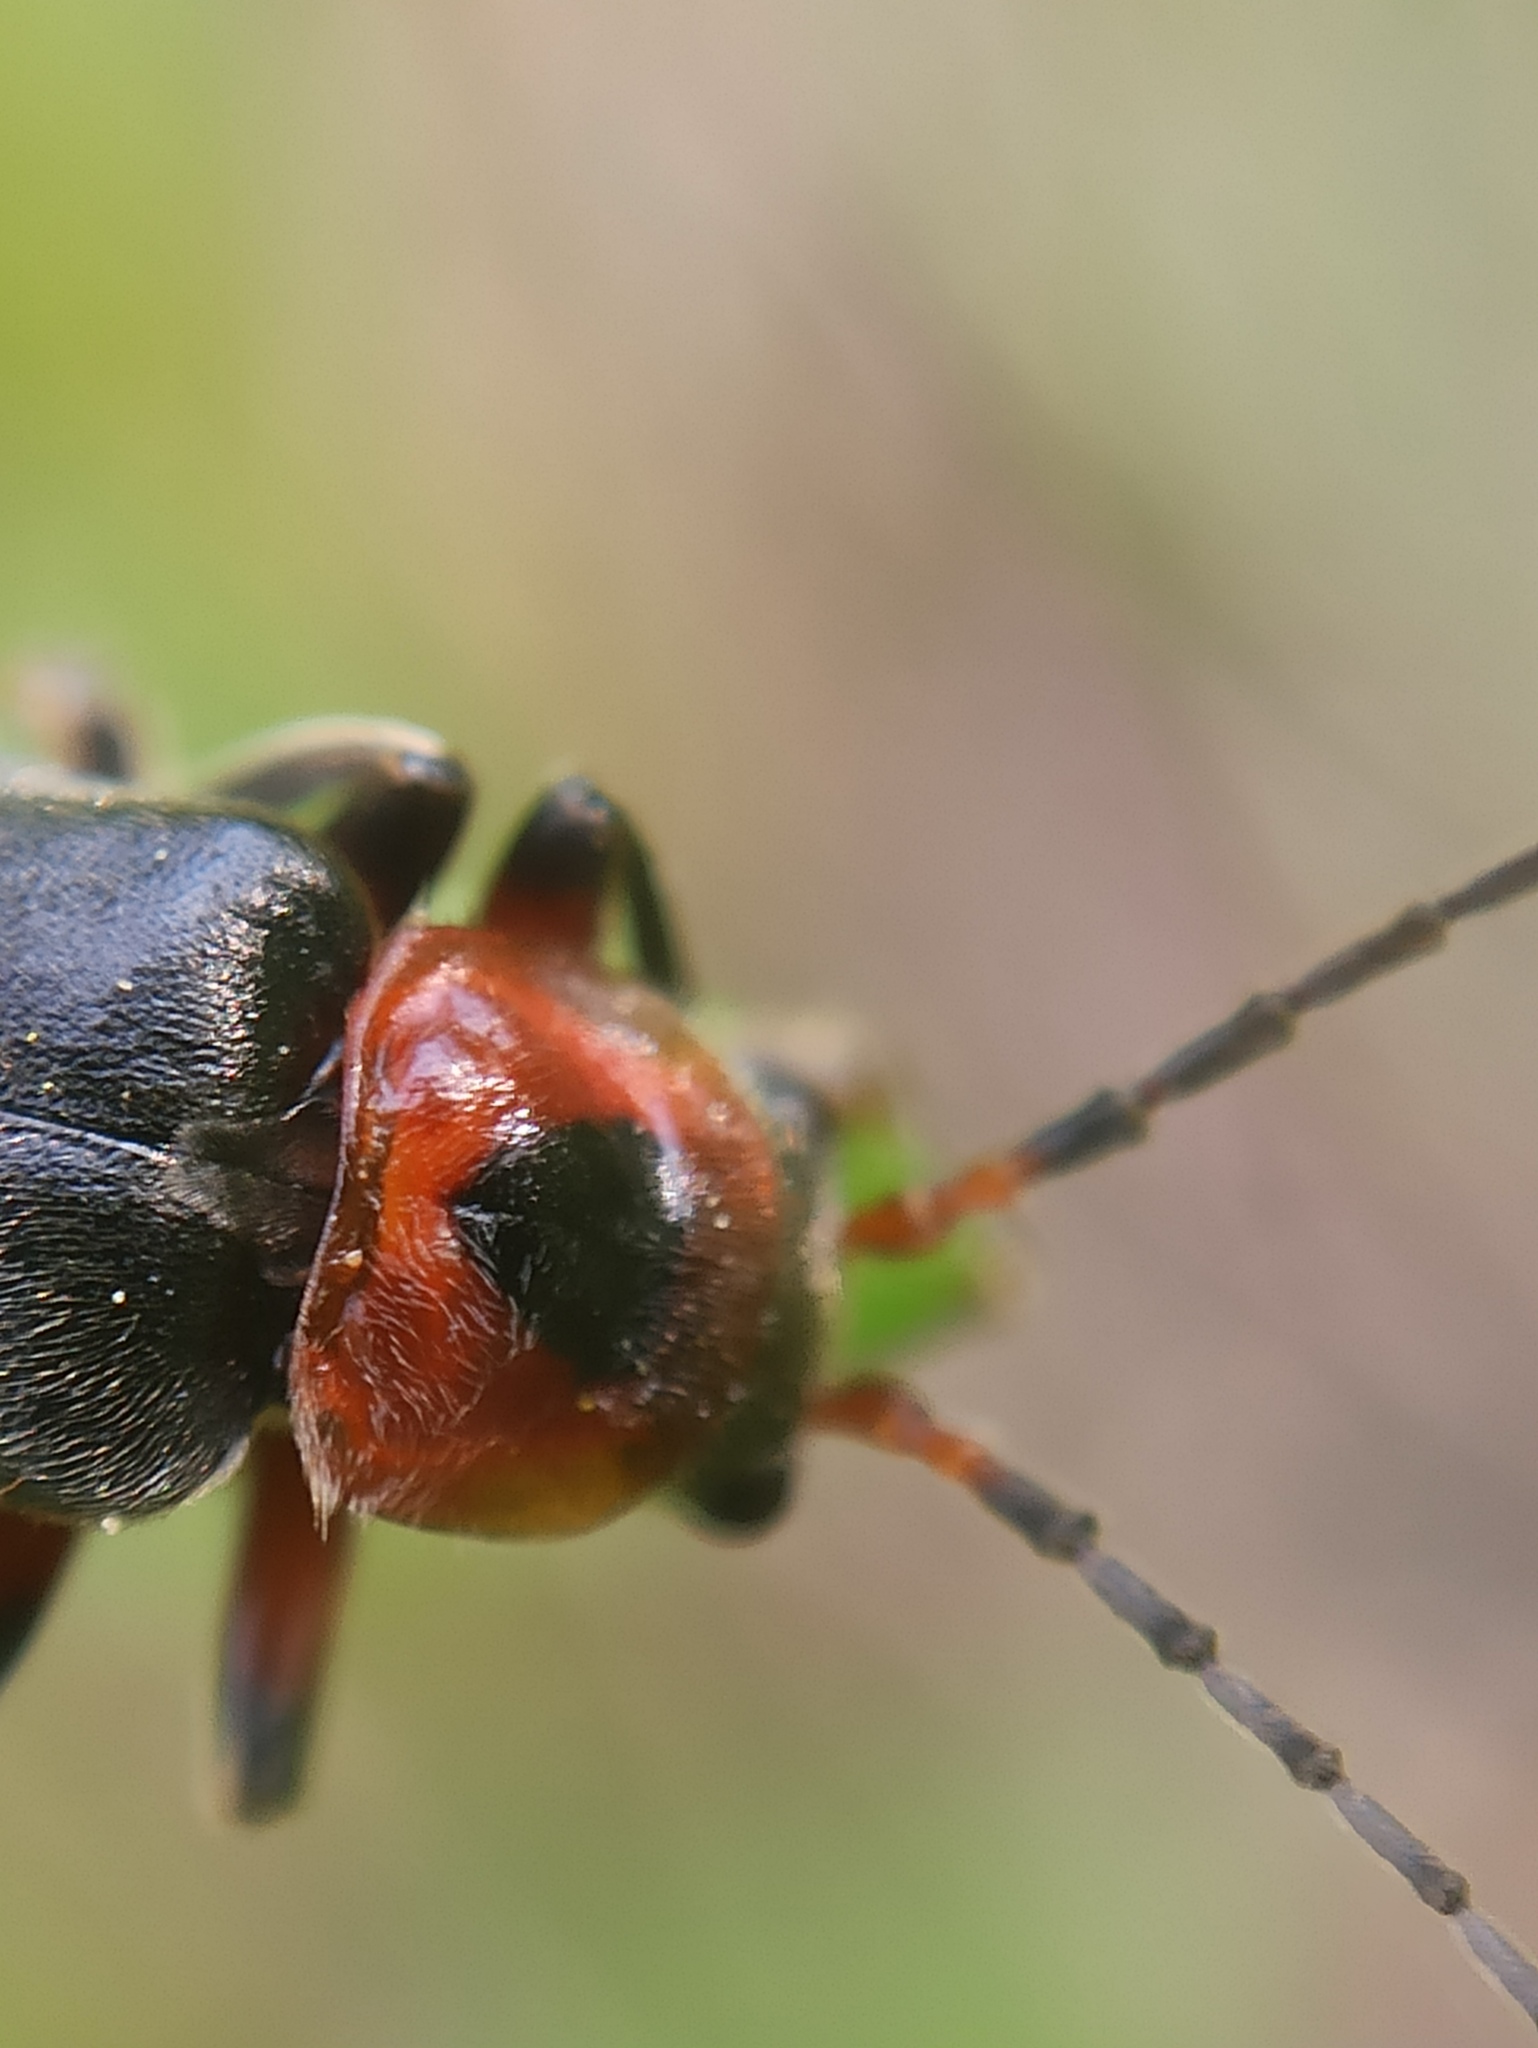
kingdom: Animalia
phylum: Arthropoda
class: Insecta
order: Coleoptera
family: Cantharidae
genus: Cantharis
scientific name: Cantharis rustica
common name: Soldier beetle
